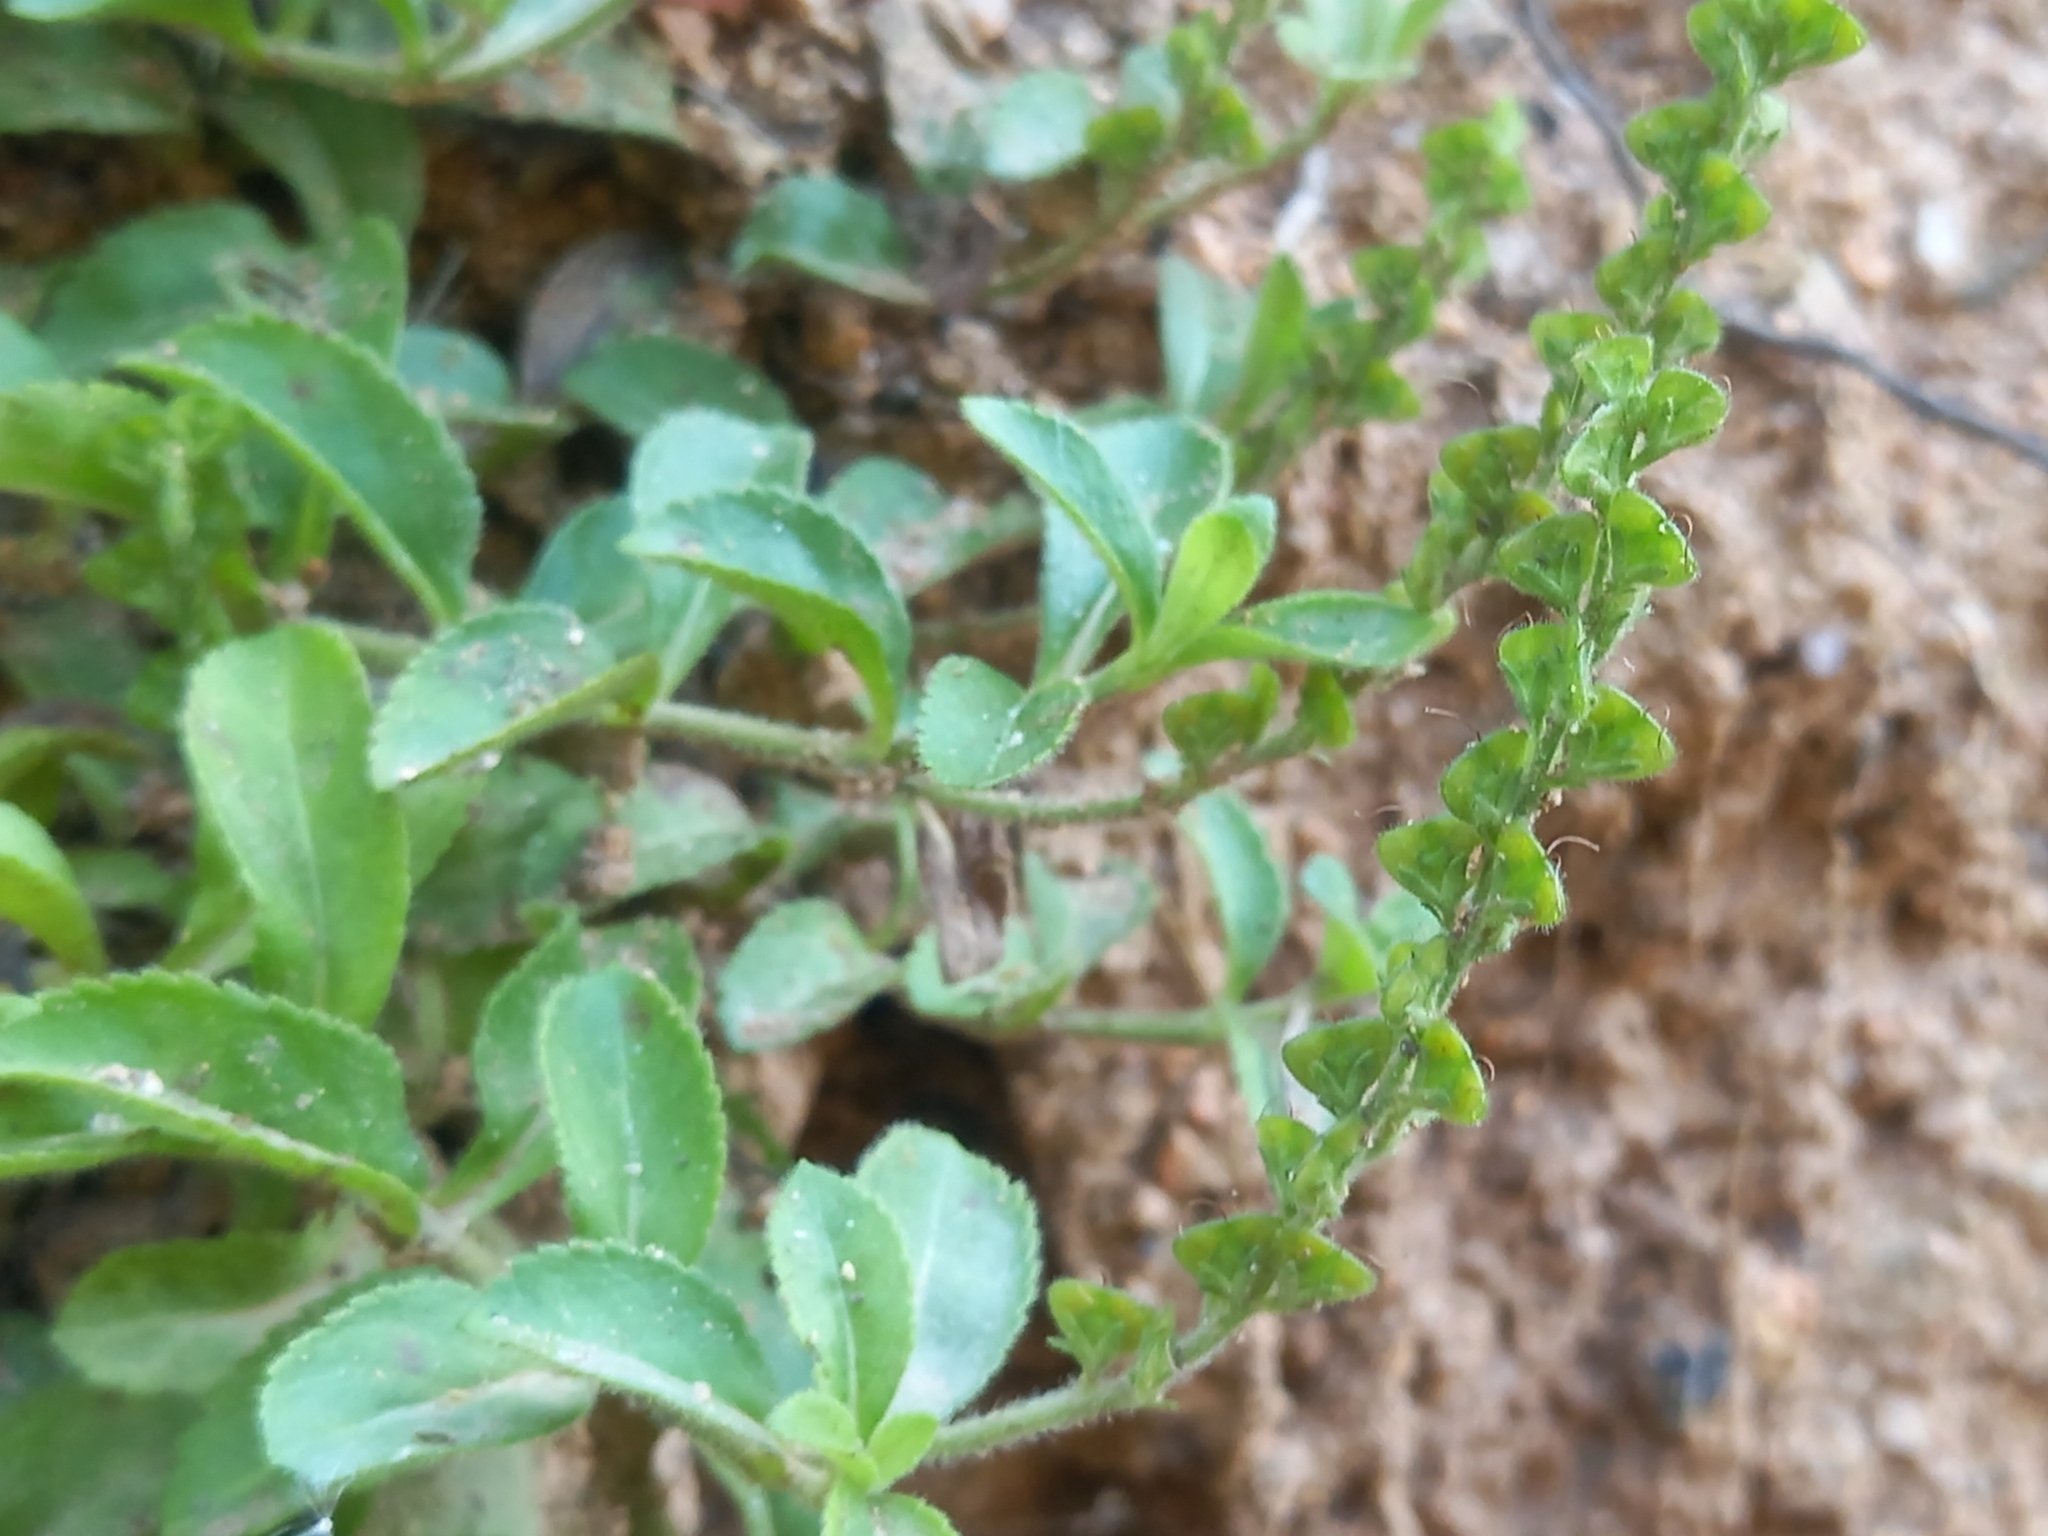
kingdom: Plantae
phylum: Tracheophyta
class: Magnoliopsida
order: Lamiales
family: Plantaginaceae
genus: Veronica
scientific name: Veronica officinalis
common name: Common speedwell
